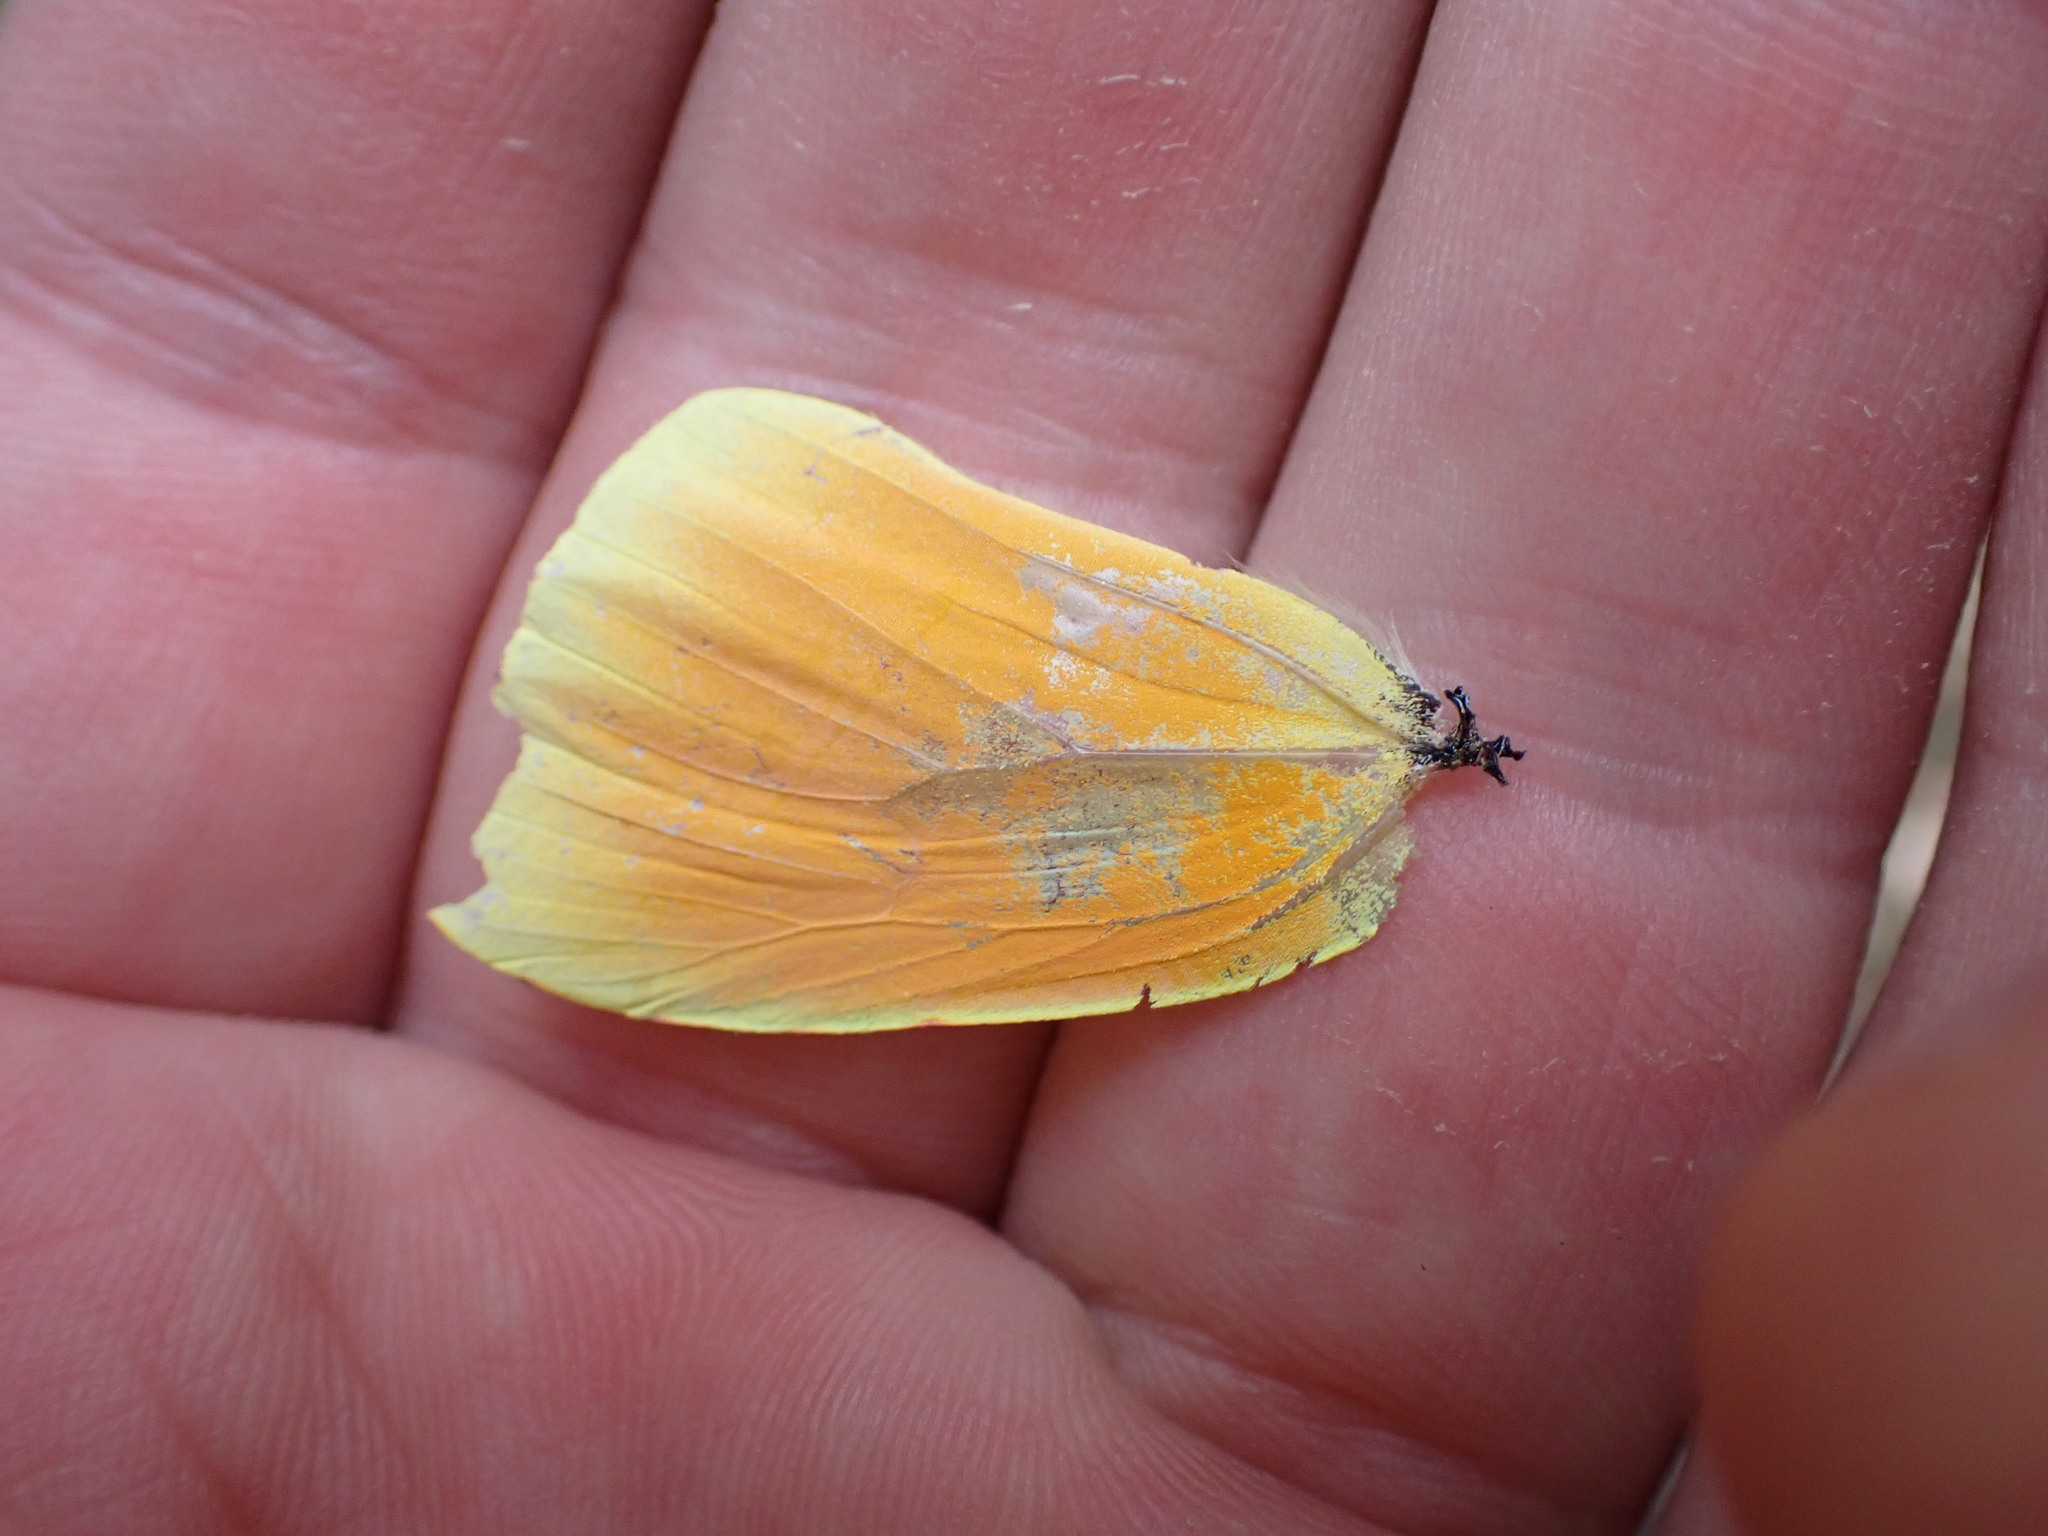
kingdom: Animalia
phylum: Arthropoda
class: Insecta
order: Lepidoptera
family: Pieridae
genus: Gonepteryx
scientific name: Gonepteryx cleopatra
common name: Cleopatra
